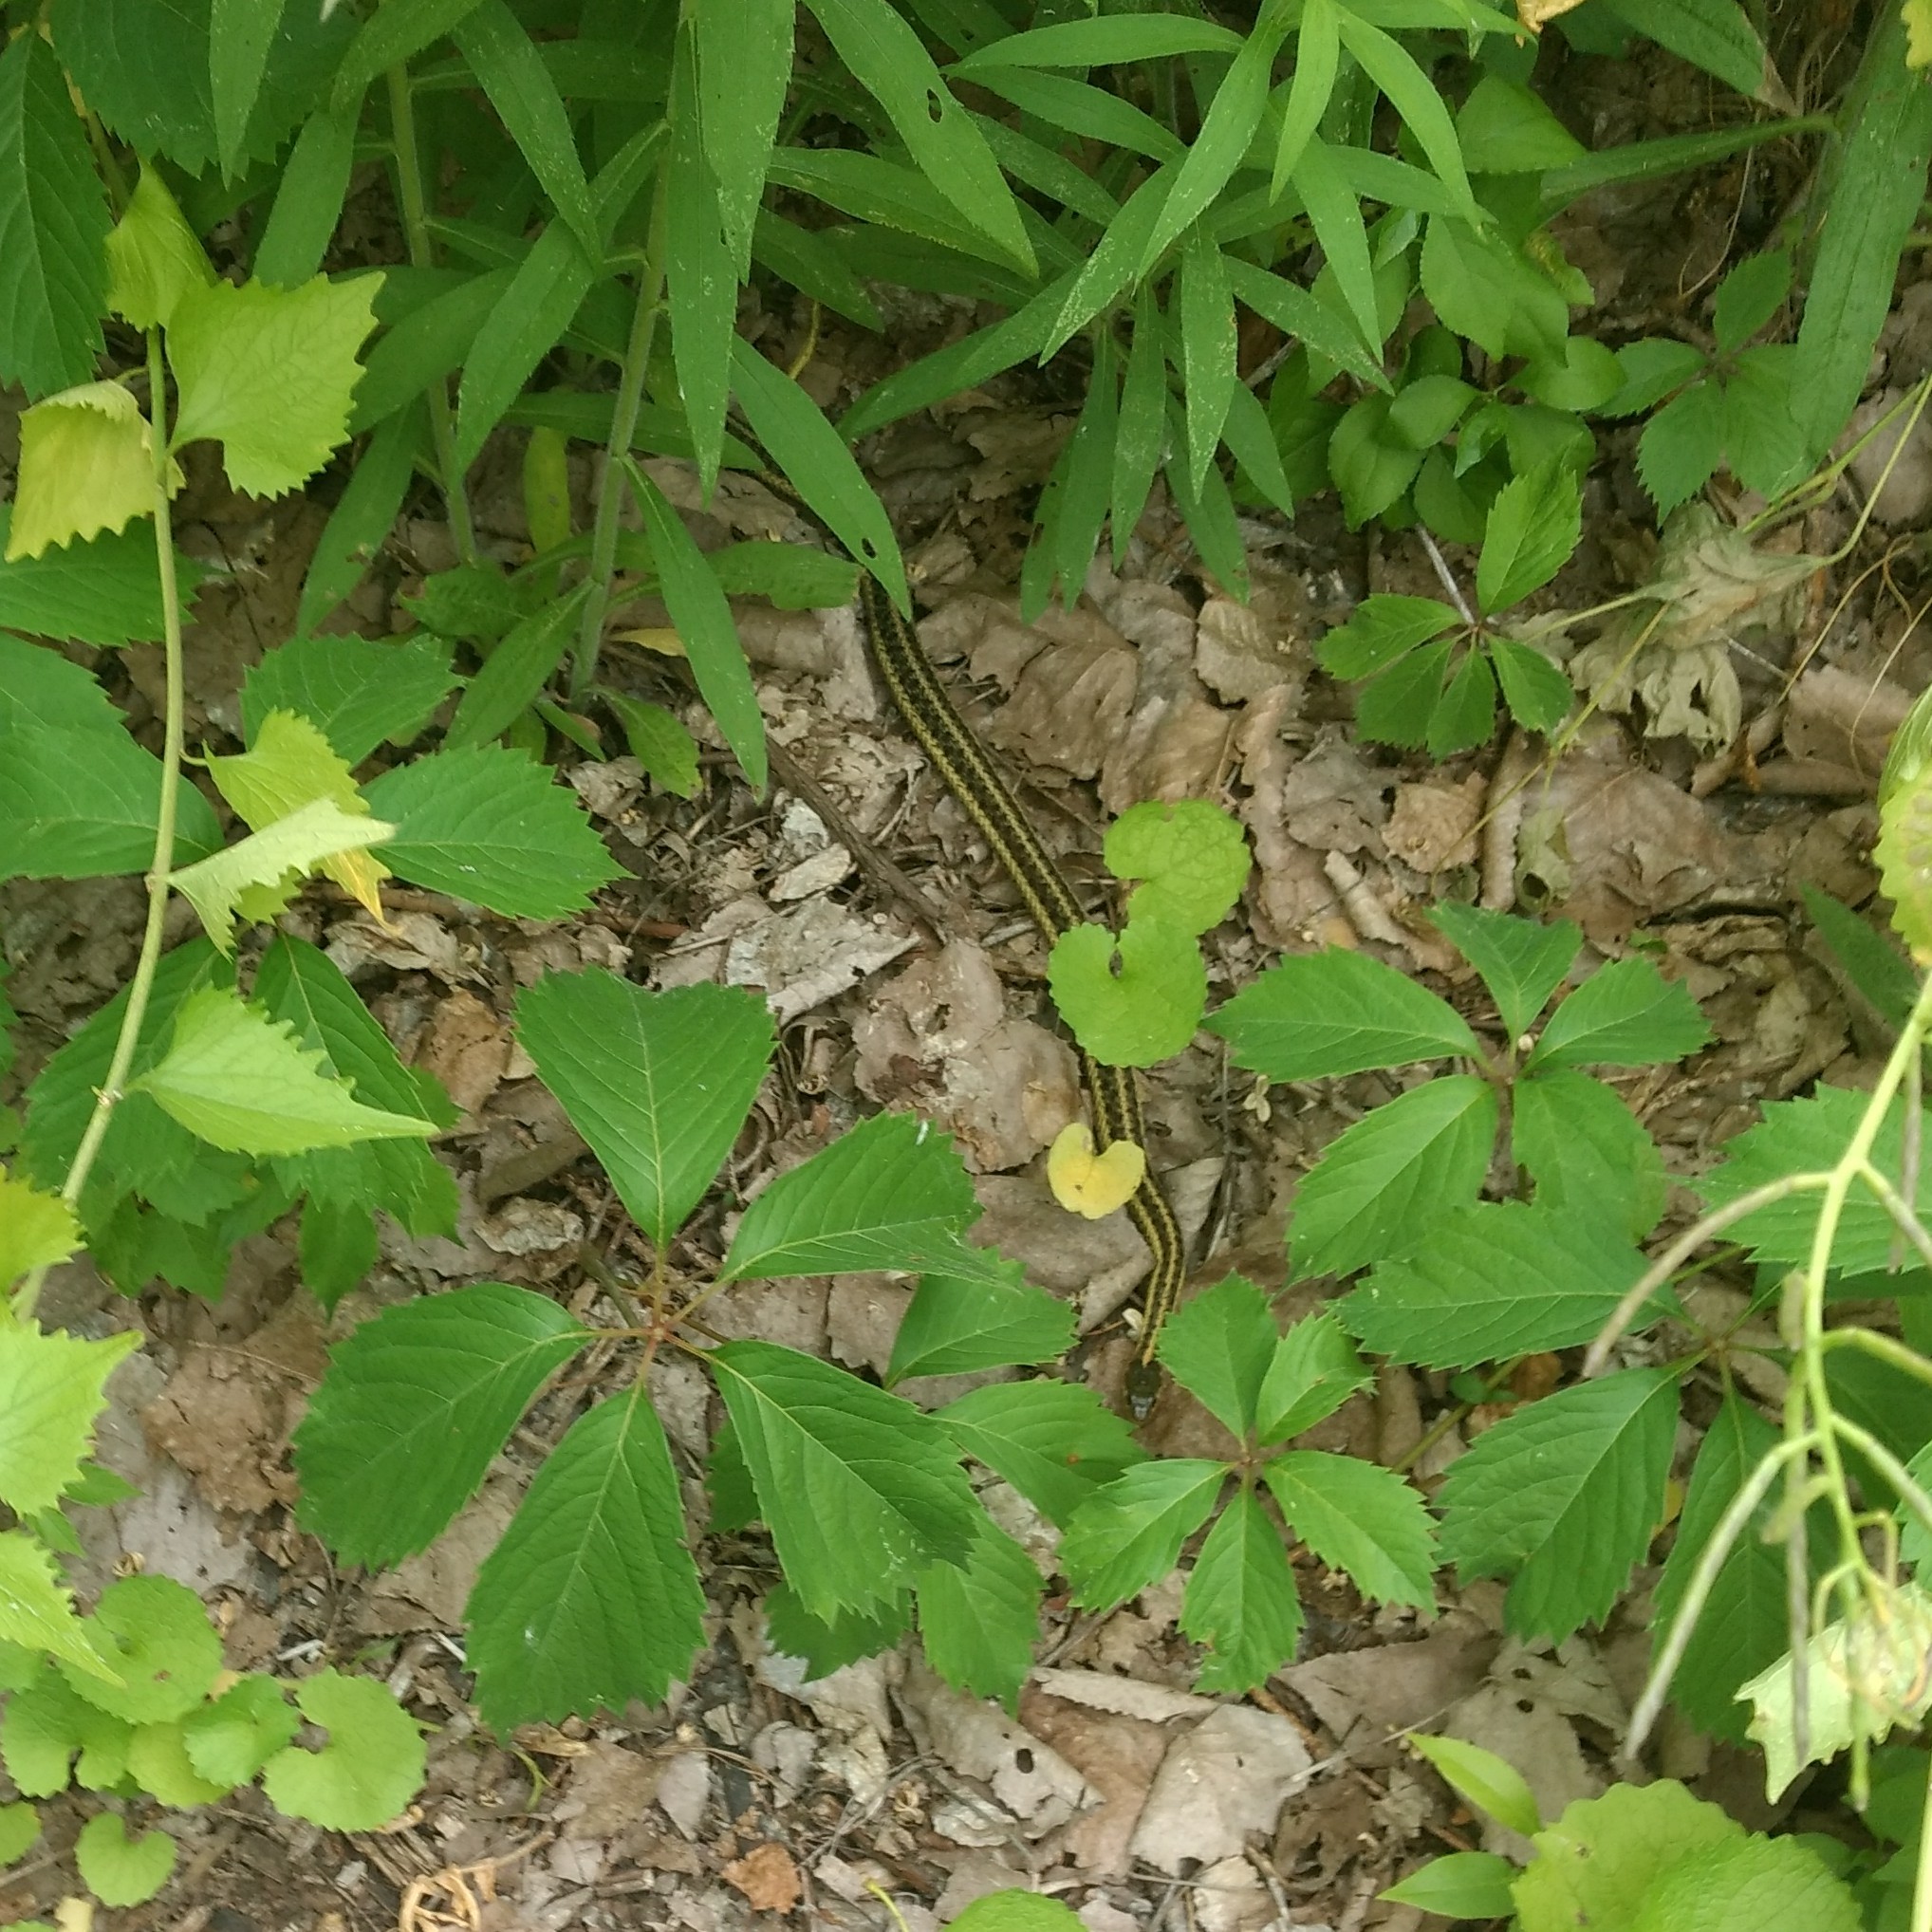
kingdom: Animalia
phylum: Chordata
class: Squamata
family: Colubridae
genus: Thamnophis
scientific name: Thamnophis sirtalis
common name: Common garter snake
